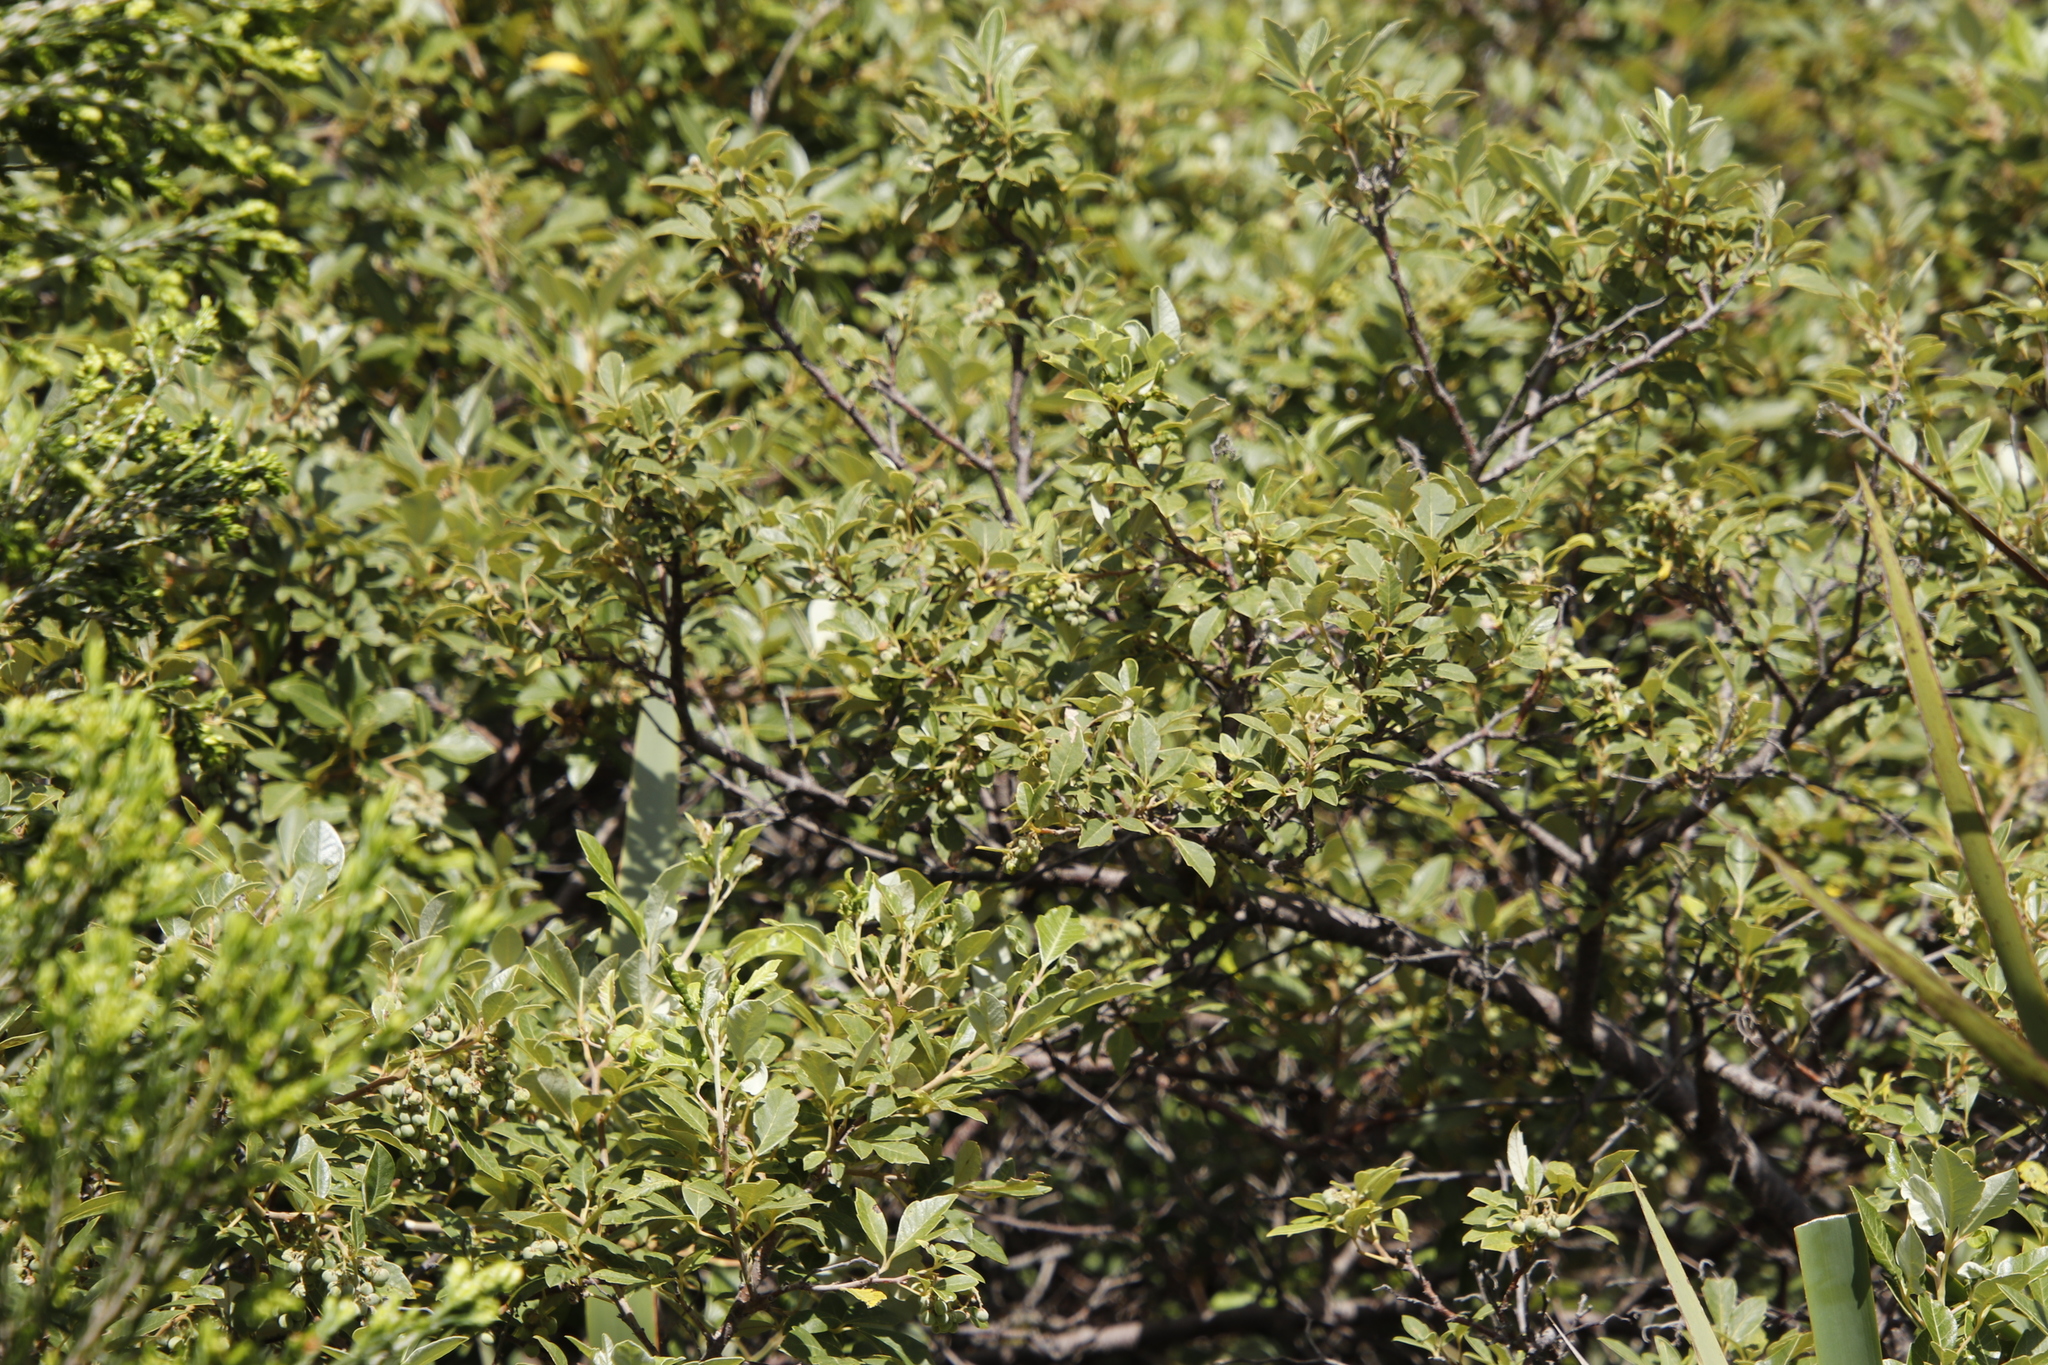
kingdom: Plantae
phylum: Tracheophyta
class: Magnoliopsida
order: Sapindales
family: Anacardiaceae
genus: Searsia
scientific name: Searsia tomentosa
